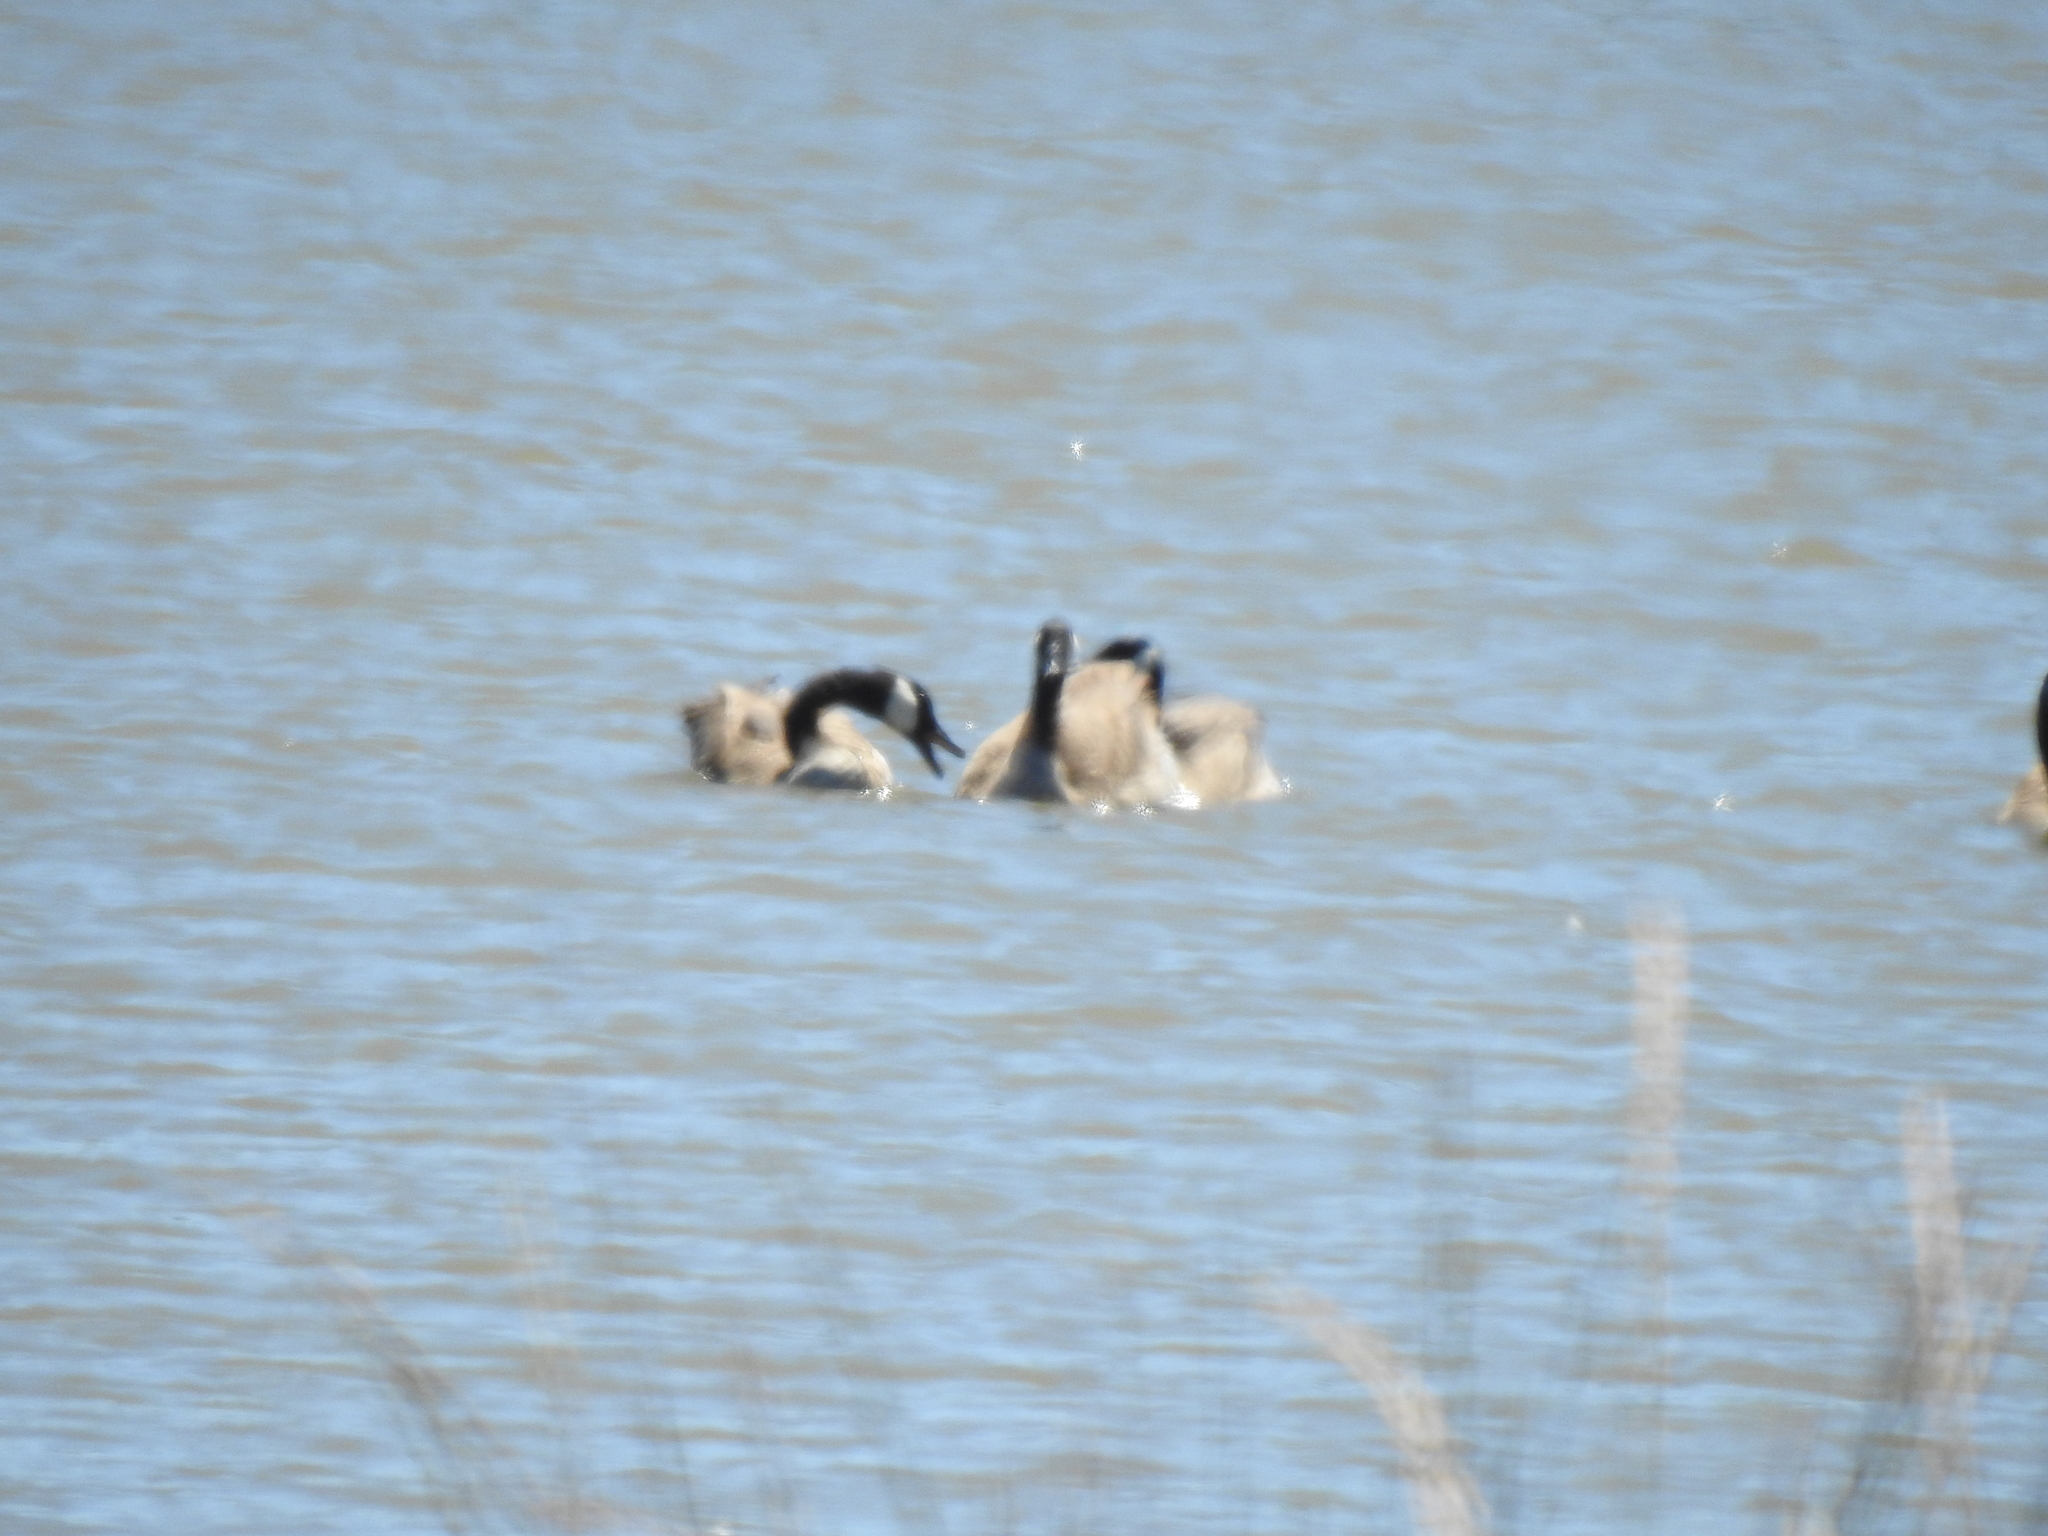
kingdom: Animalia
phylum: Chordata
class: Aves
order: Anseriformes
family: Anatidae
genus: Branta
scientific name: Branta canadensis
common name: Canada goose
